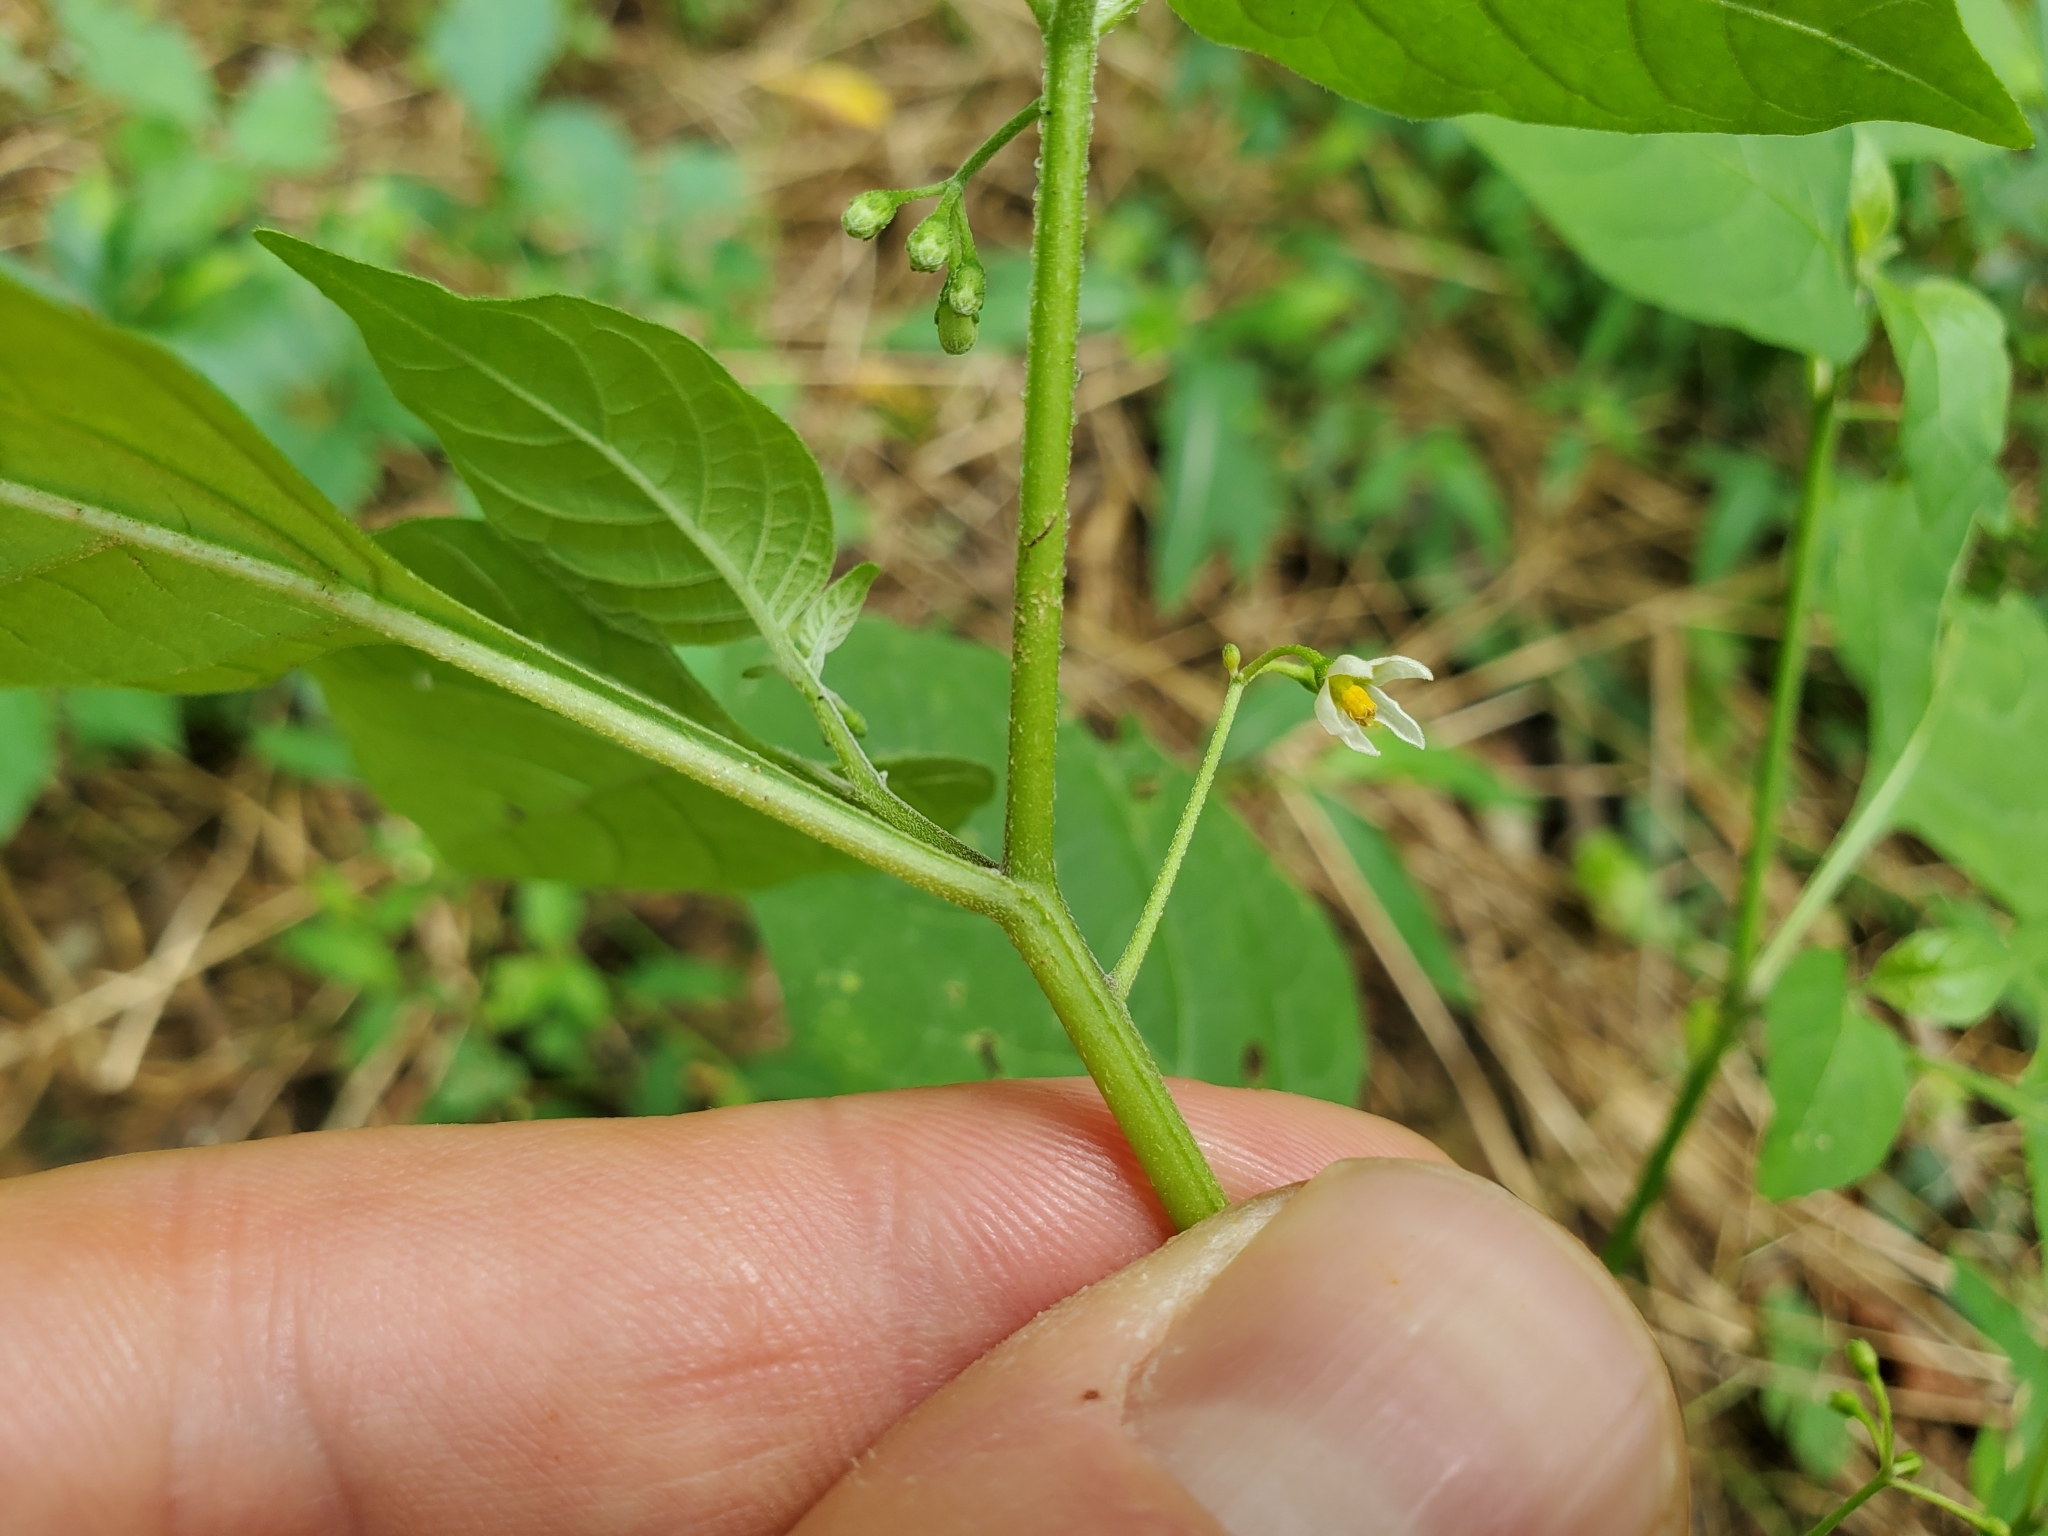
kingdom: Plantae
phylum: Tracheophyta
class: Magnoliopsida
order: Solanales
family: Solanaceae
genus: Solanum
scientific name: Solanum emulans
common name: Eastern black nightshade
